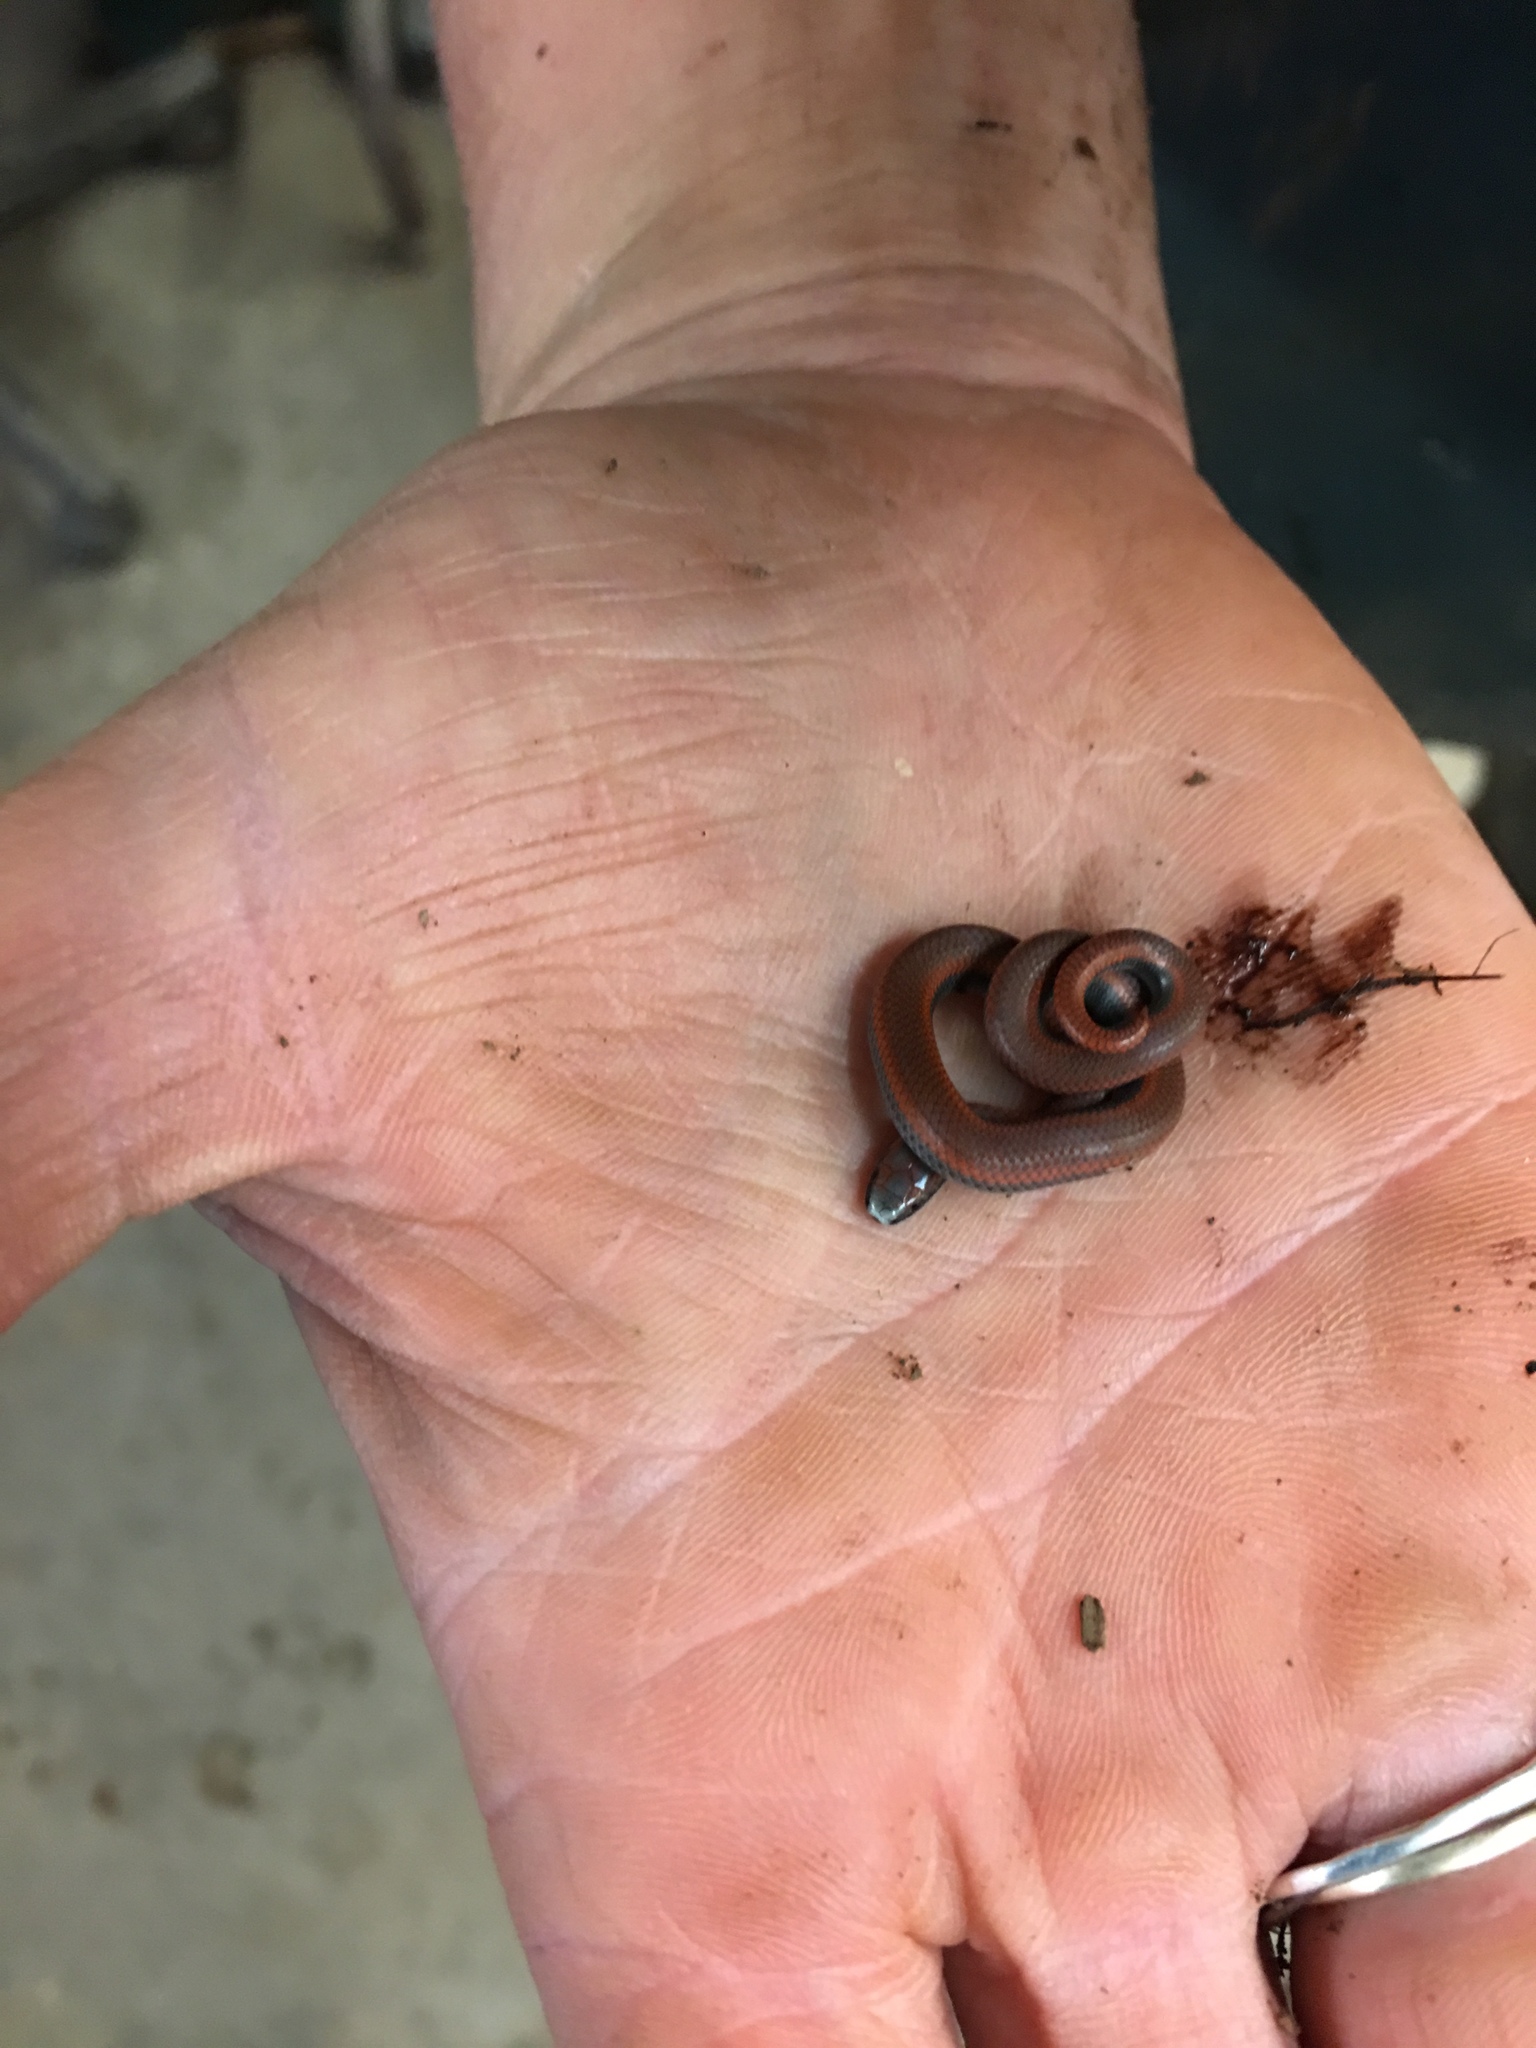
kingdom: Animalia
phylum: Chordata
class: Squamata
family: Colubridae
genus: Contia
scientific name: Contia tenuis
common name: Sharptail snake
